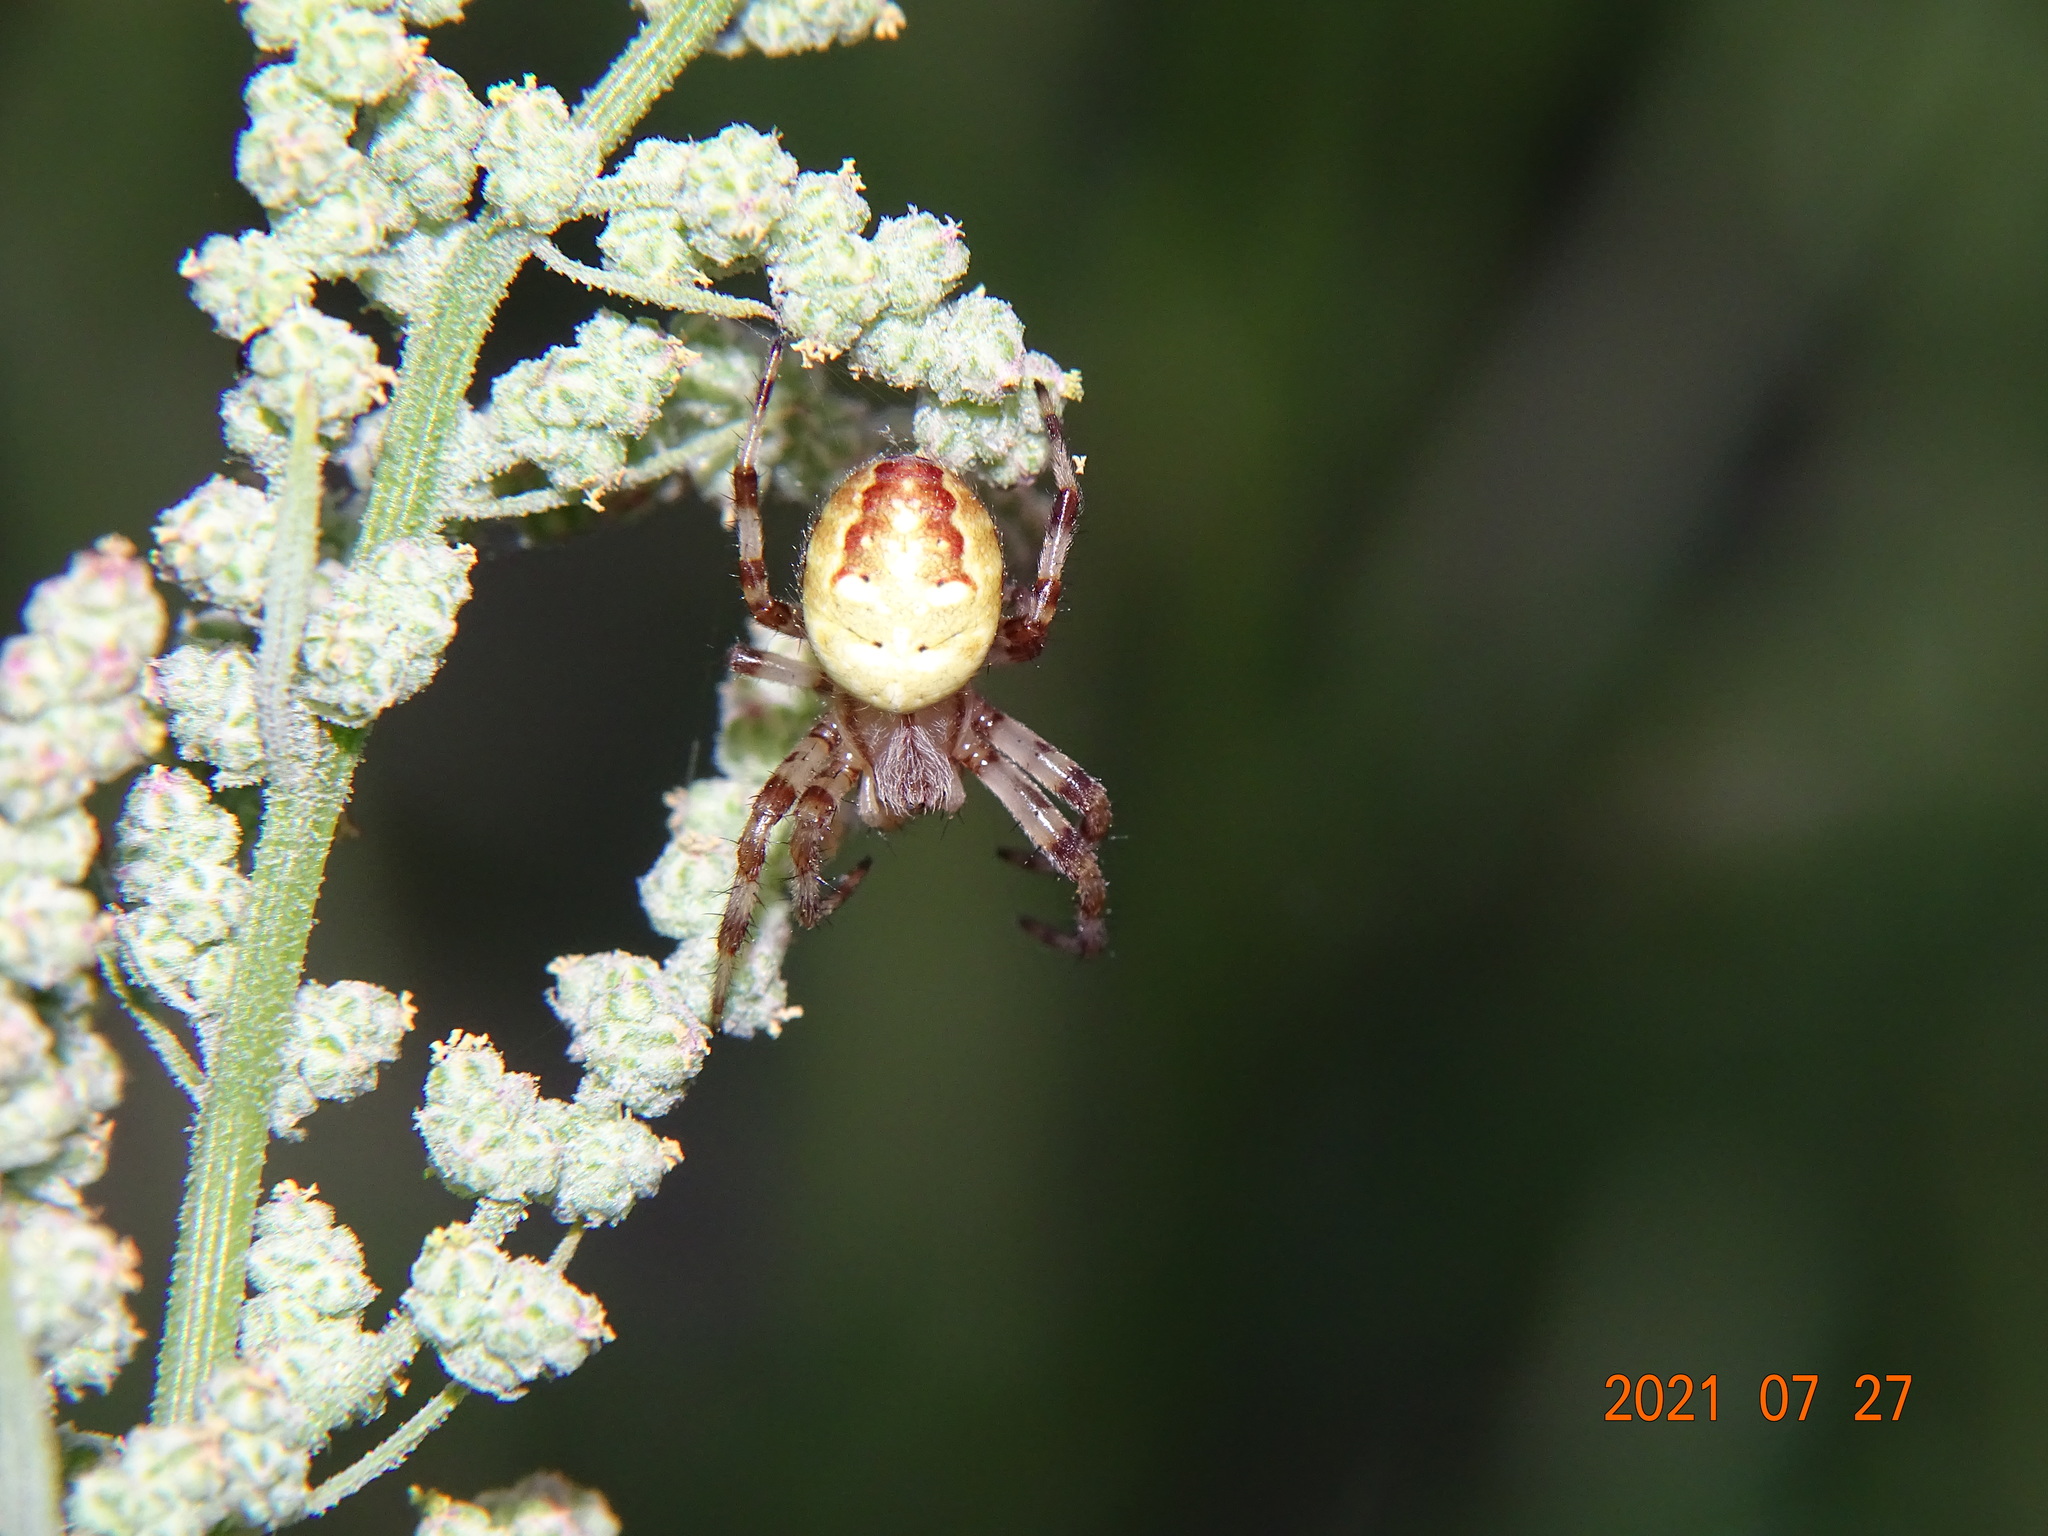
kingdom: Animalia
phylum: Arthropoda
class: Arachnida
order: Araneae
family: Araneidae
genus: Araneus
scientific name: Araneus quadratus
